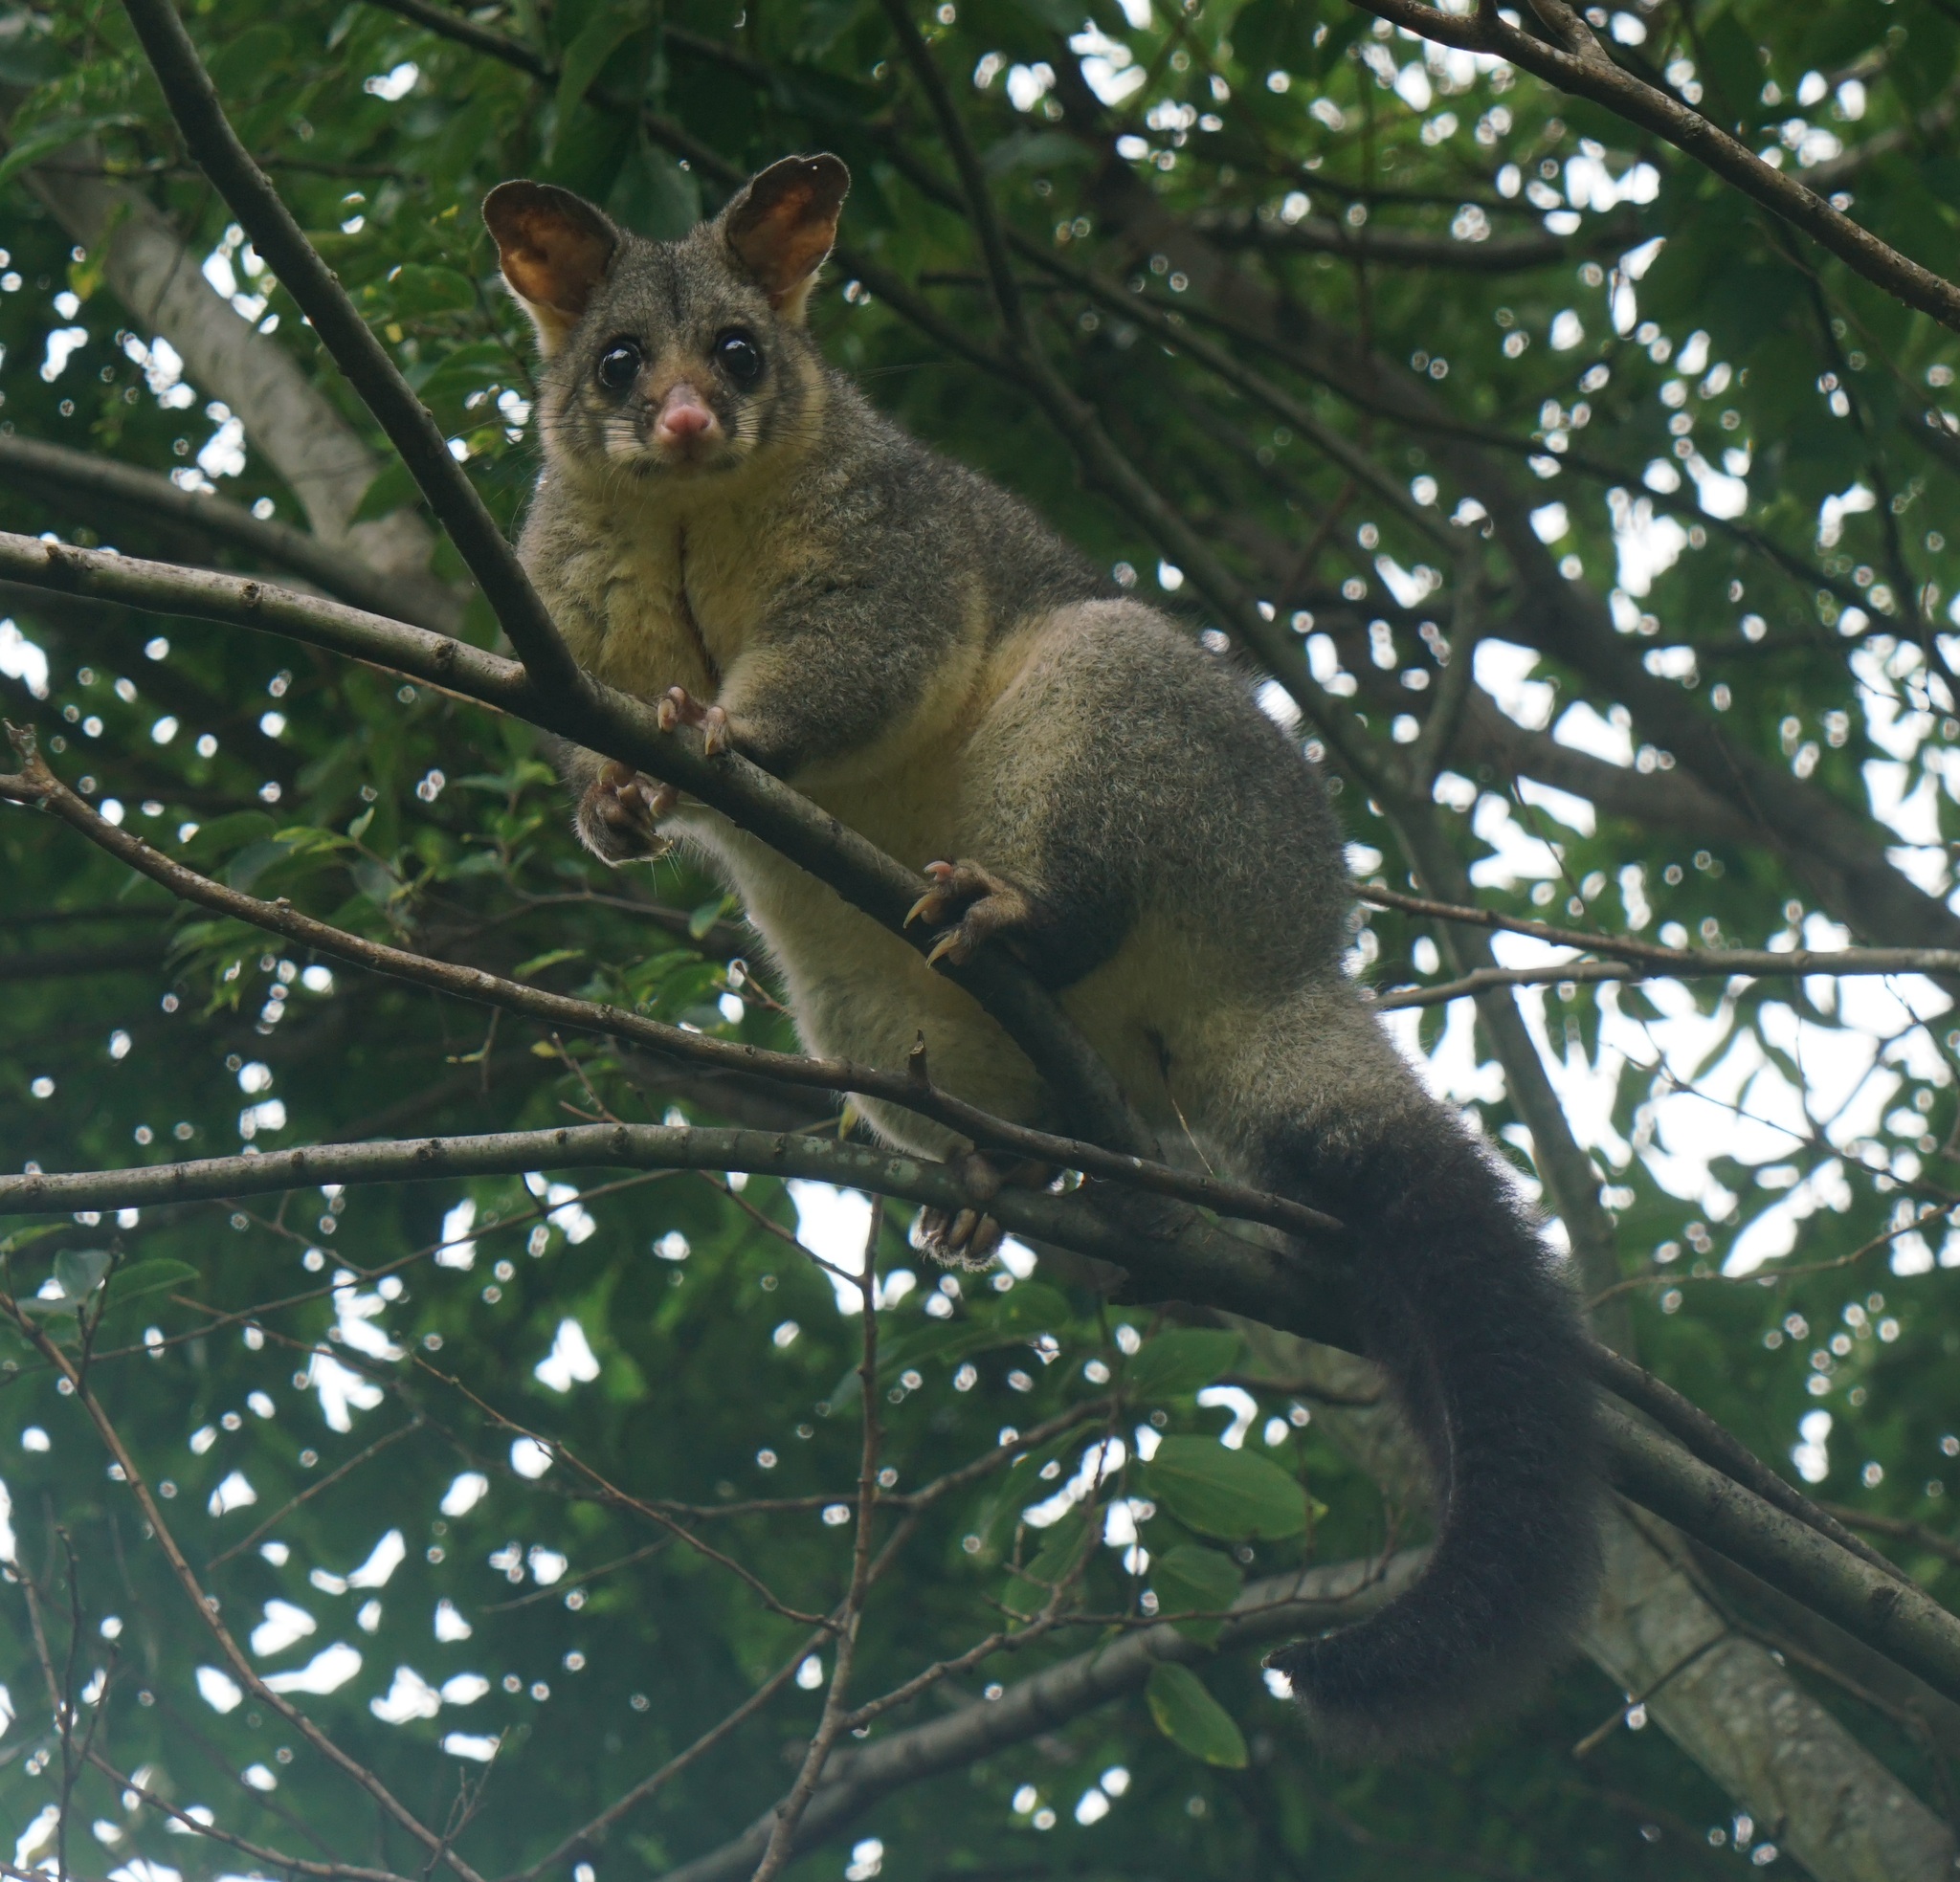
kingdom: Animalia
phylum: Chordata
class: Mammalia
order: Diprotodontia
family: Phalangeridae
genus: Trichosurus
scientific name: Trichosurus vulpecula
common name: Common brushtail
